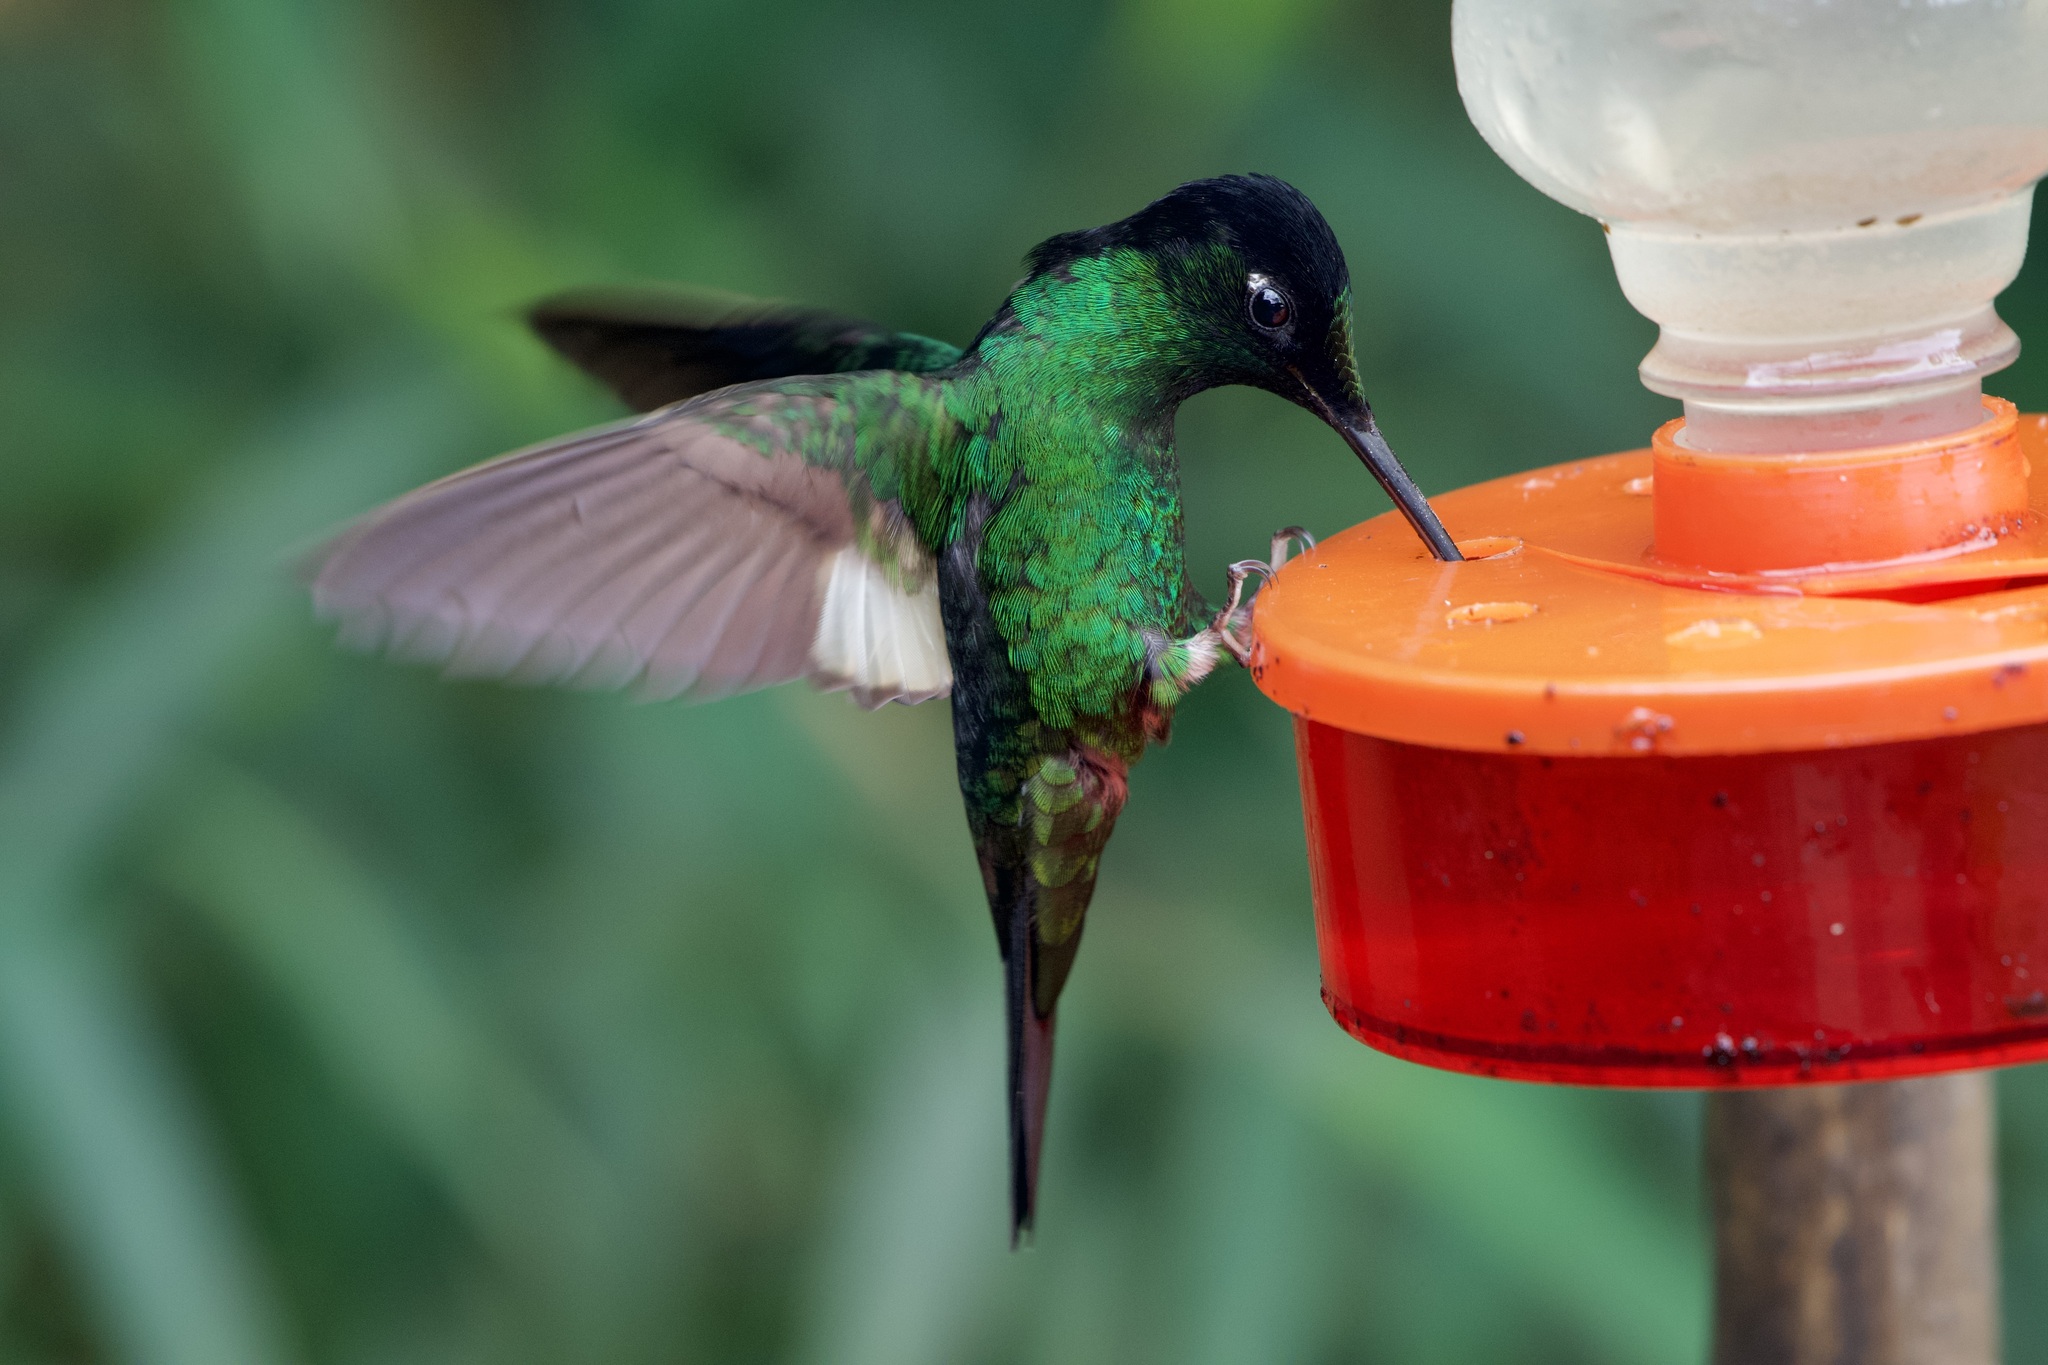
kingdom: Animalia
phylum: Chordata
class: Aves
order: Apodiformes
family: Trochilidae
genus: Coeligena
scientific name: Coeligena lutetiae
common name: Buff-winged starfrontlet
